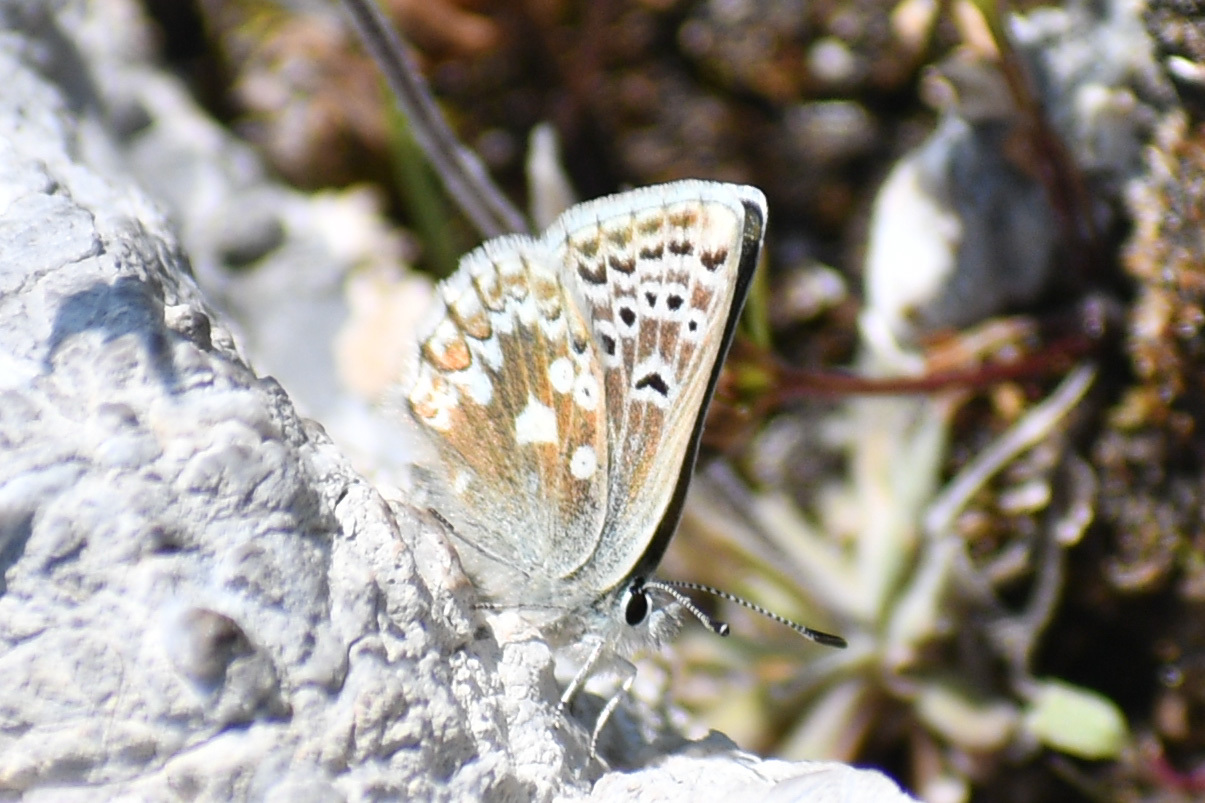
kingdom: Animalia
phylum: Arthropoda
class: Insecta
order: Lepidoptera
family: Lycaenidae
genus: Agriades
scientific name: Agriades glandon
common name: Glandon blue
